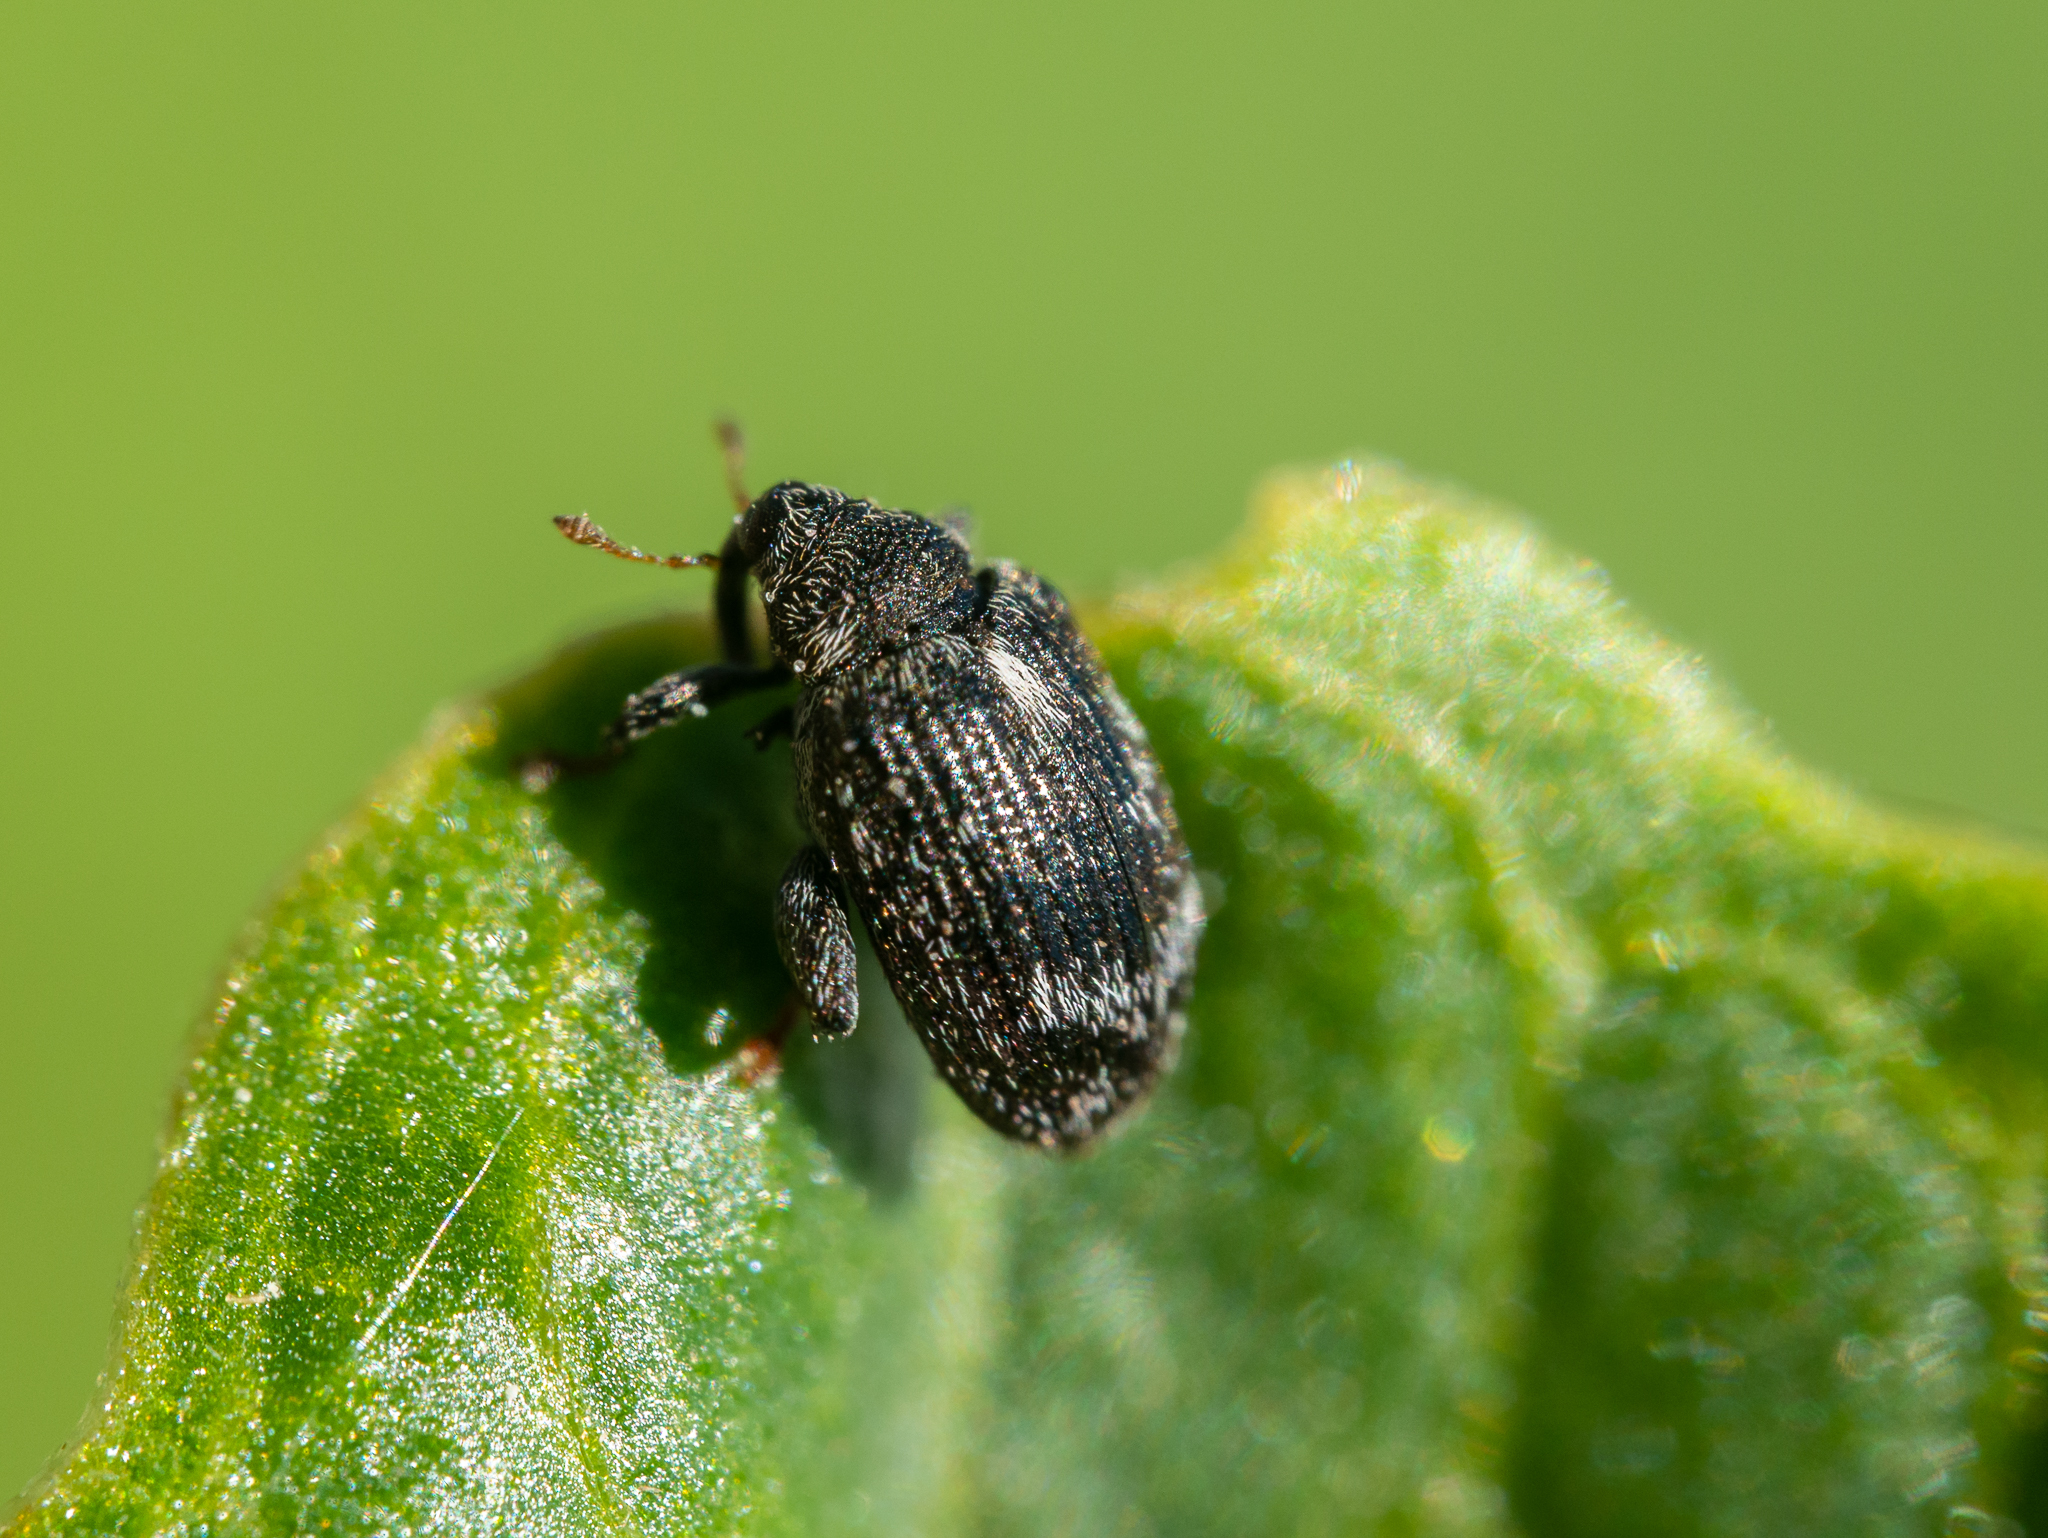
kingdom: Animalia
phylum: Arthropoda
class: Insecta
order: Coleoptera
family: Curculionidae
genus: Orchestes
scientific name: Orchestes rusci
